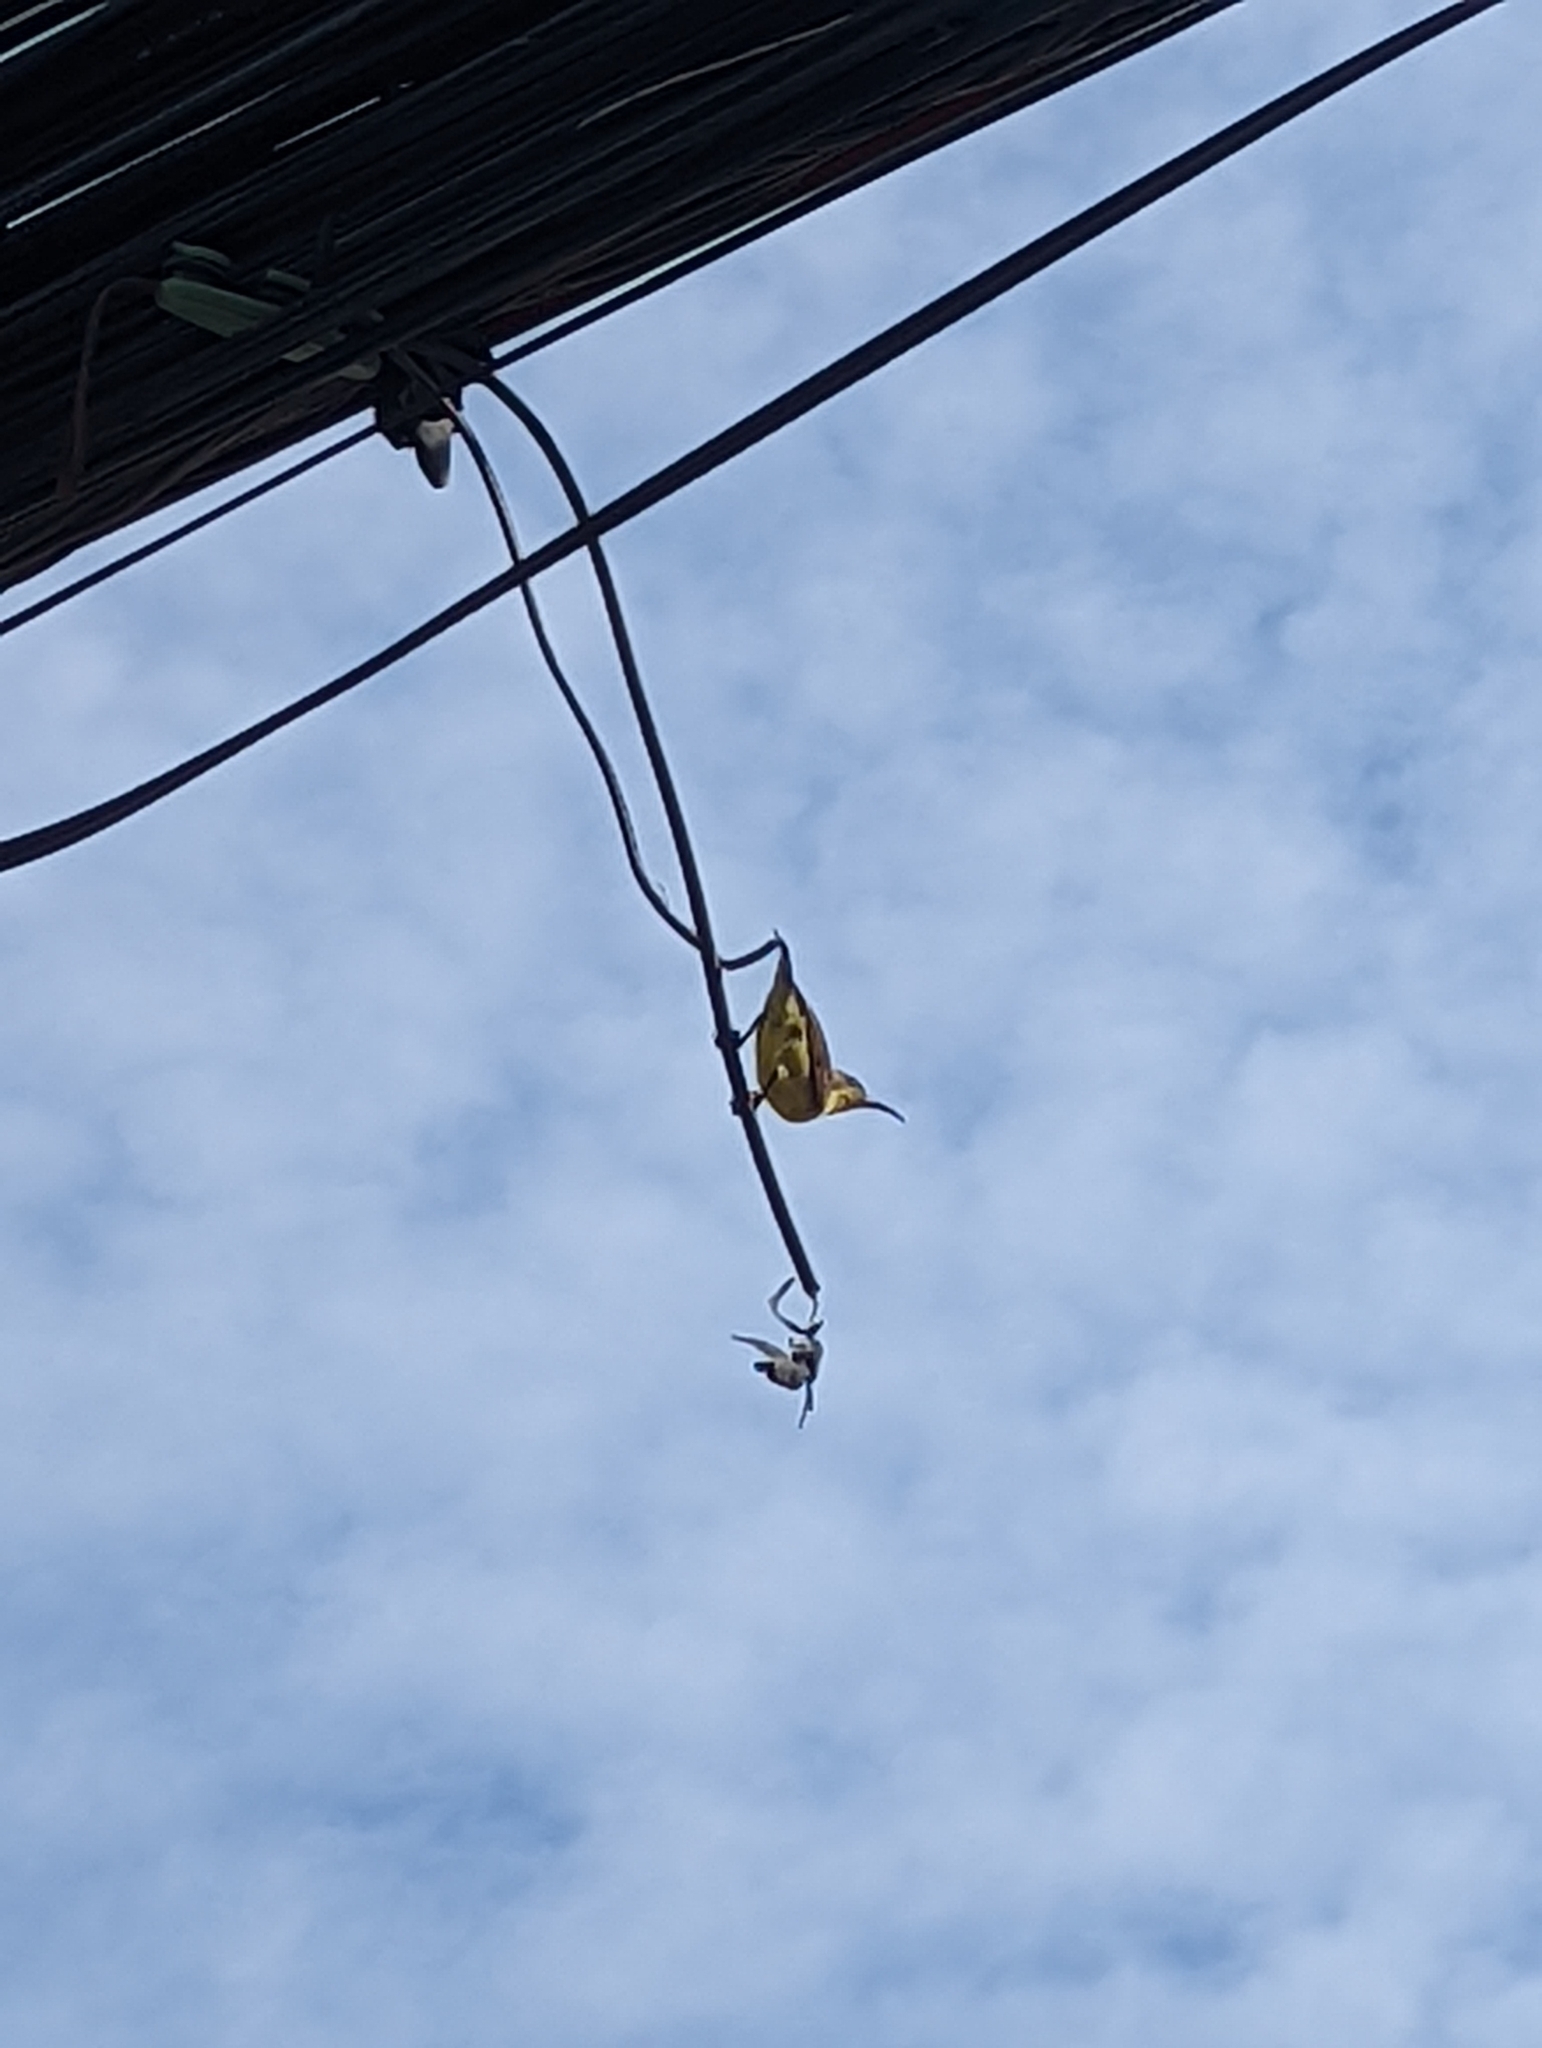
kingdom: Animalia
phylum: Chordata
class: Aves
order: Passeriformes
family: Nectariniidae
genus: Cinnyris
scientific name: Cinnyris
